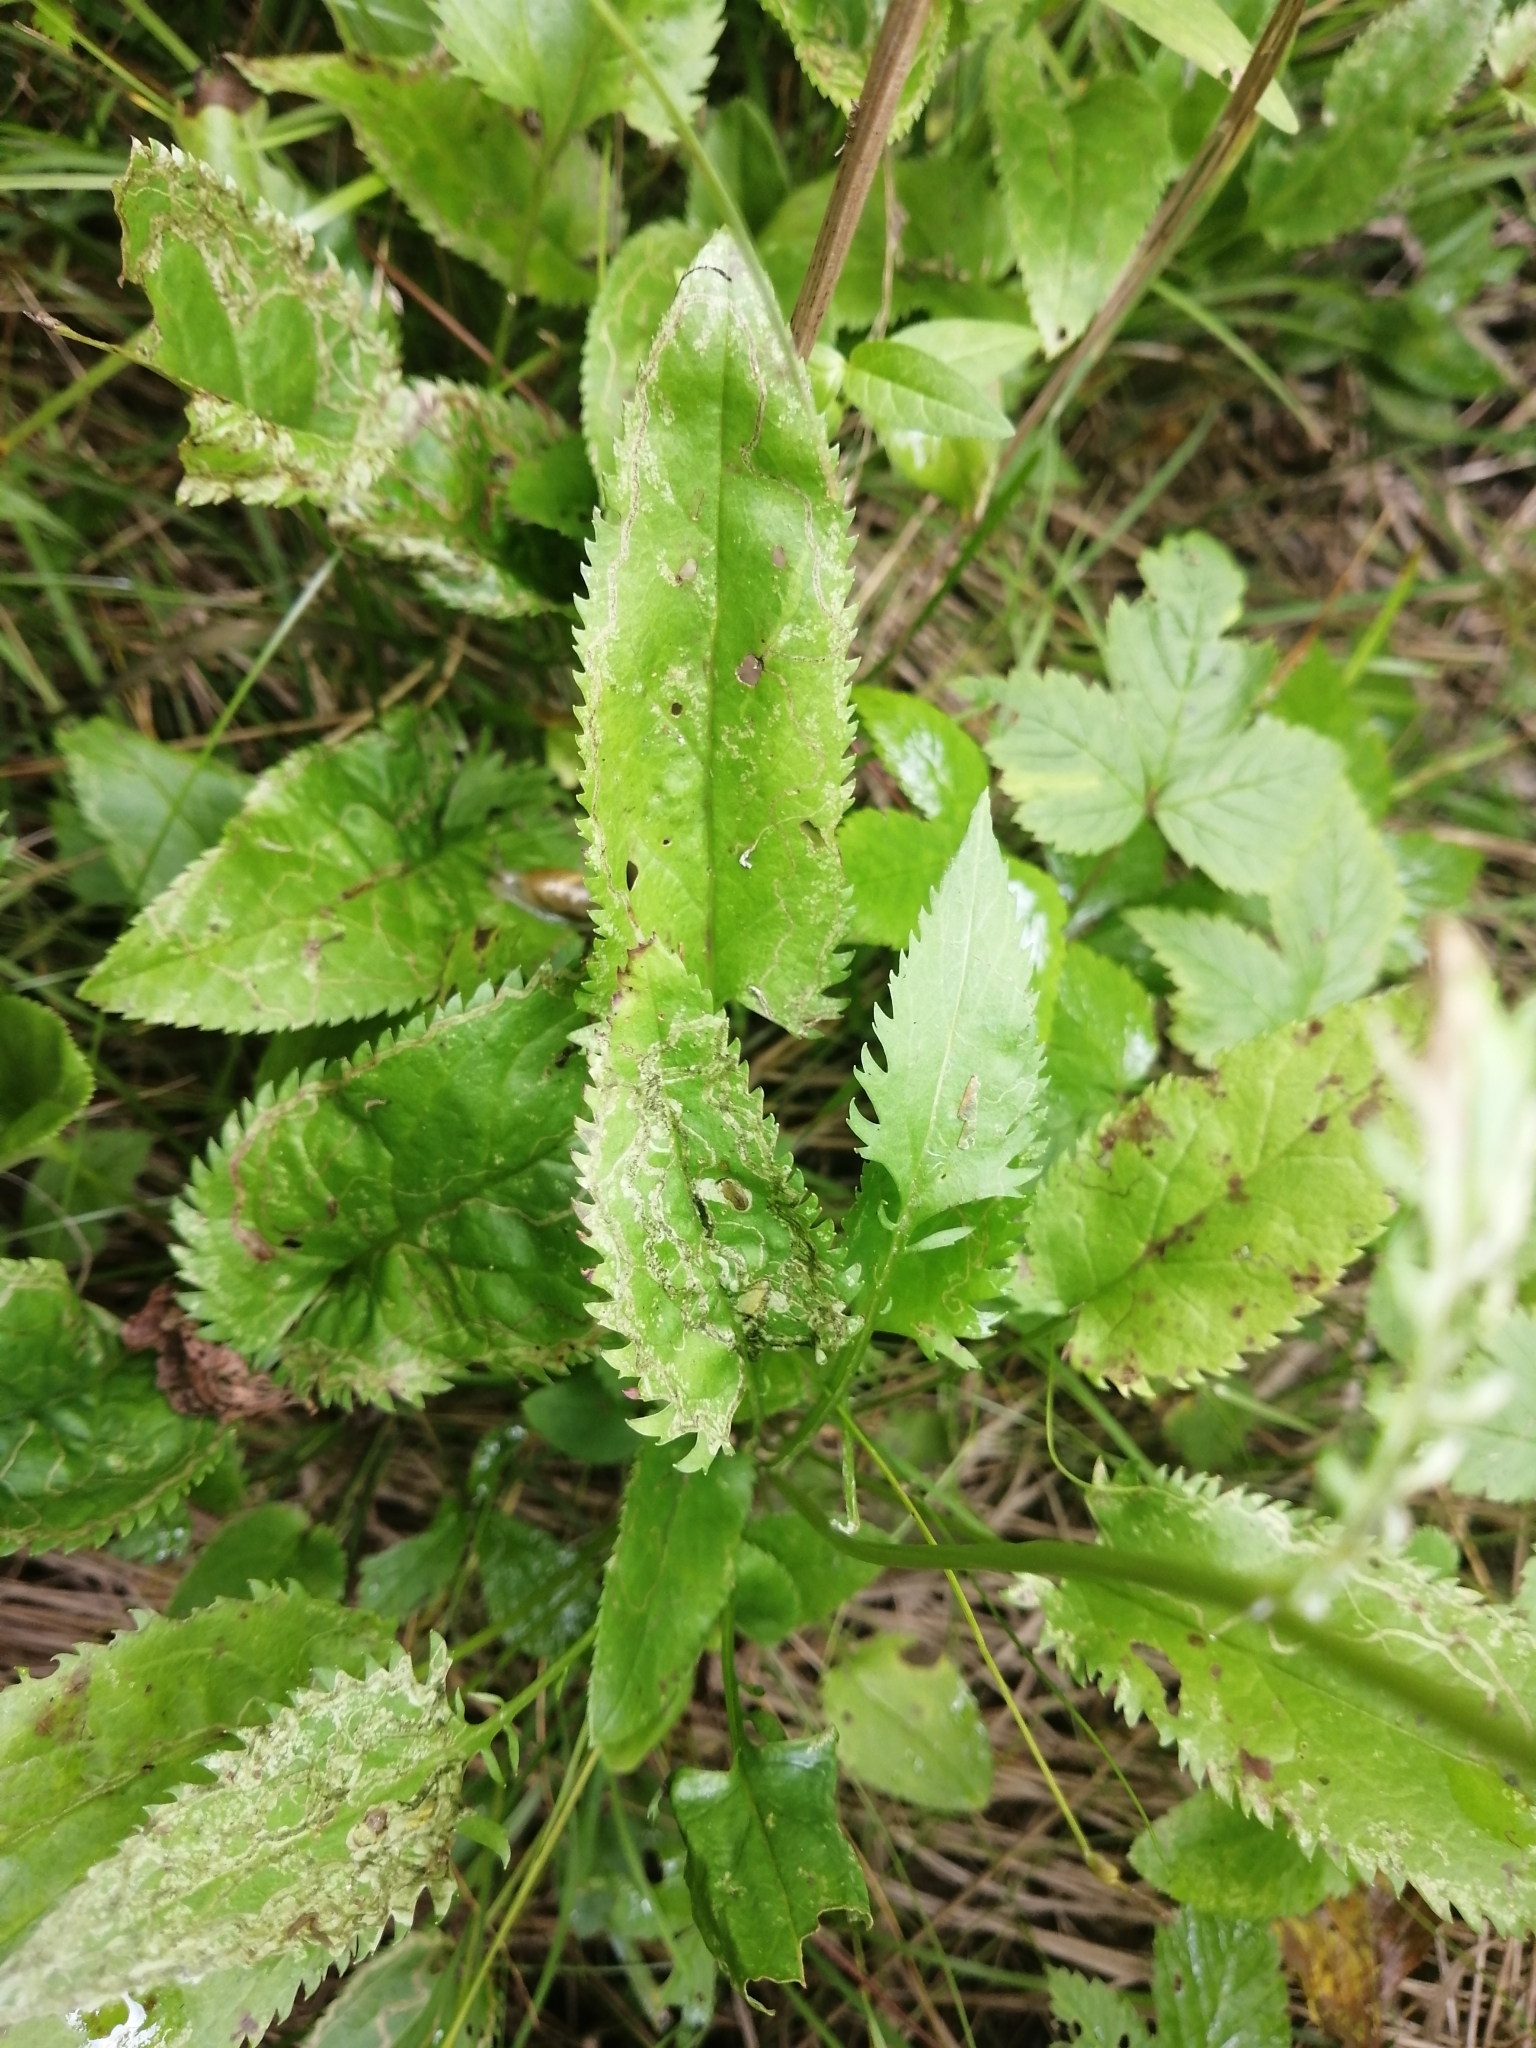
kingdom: Plantae
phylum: Tracheophyta
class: Magnoliopsida
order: Asterales
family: Asteraceae
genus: Packera
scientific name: Packera schweinitziana
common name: Schweinitz's ragwort
